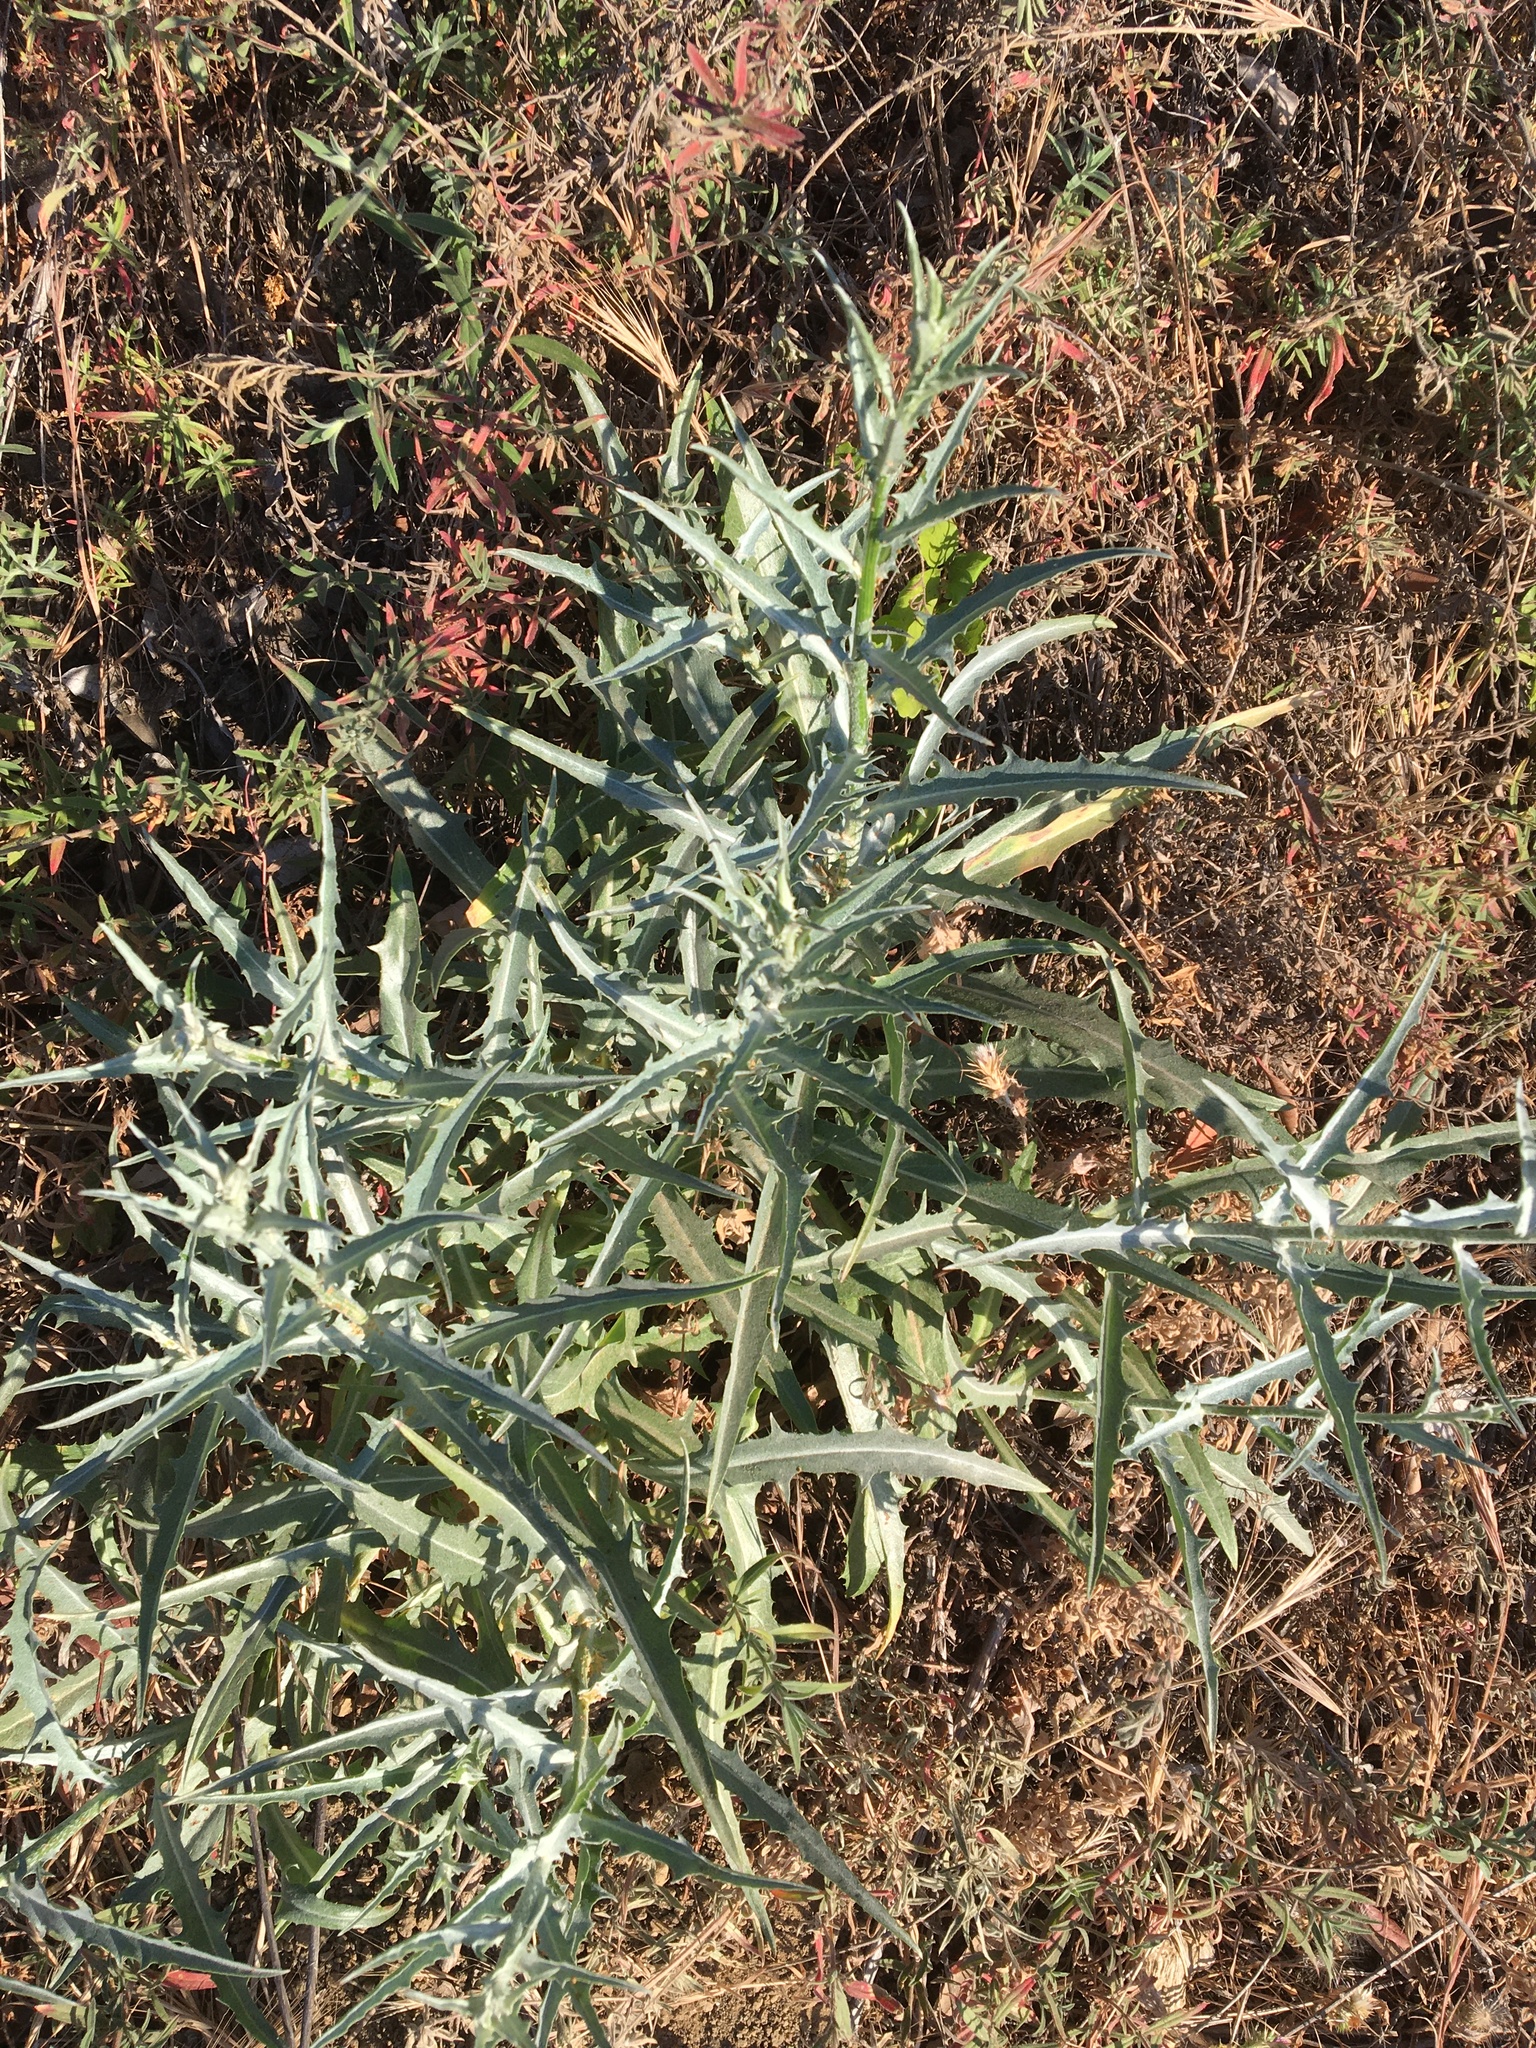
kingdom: Plantae
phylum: Tracheophyta
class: Magnoliopsida
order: Asterales
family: Asteraceae
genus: Stephanomeria
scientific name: Stephanomeria cichoriacea
